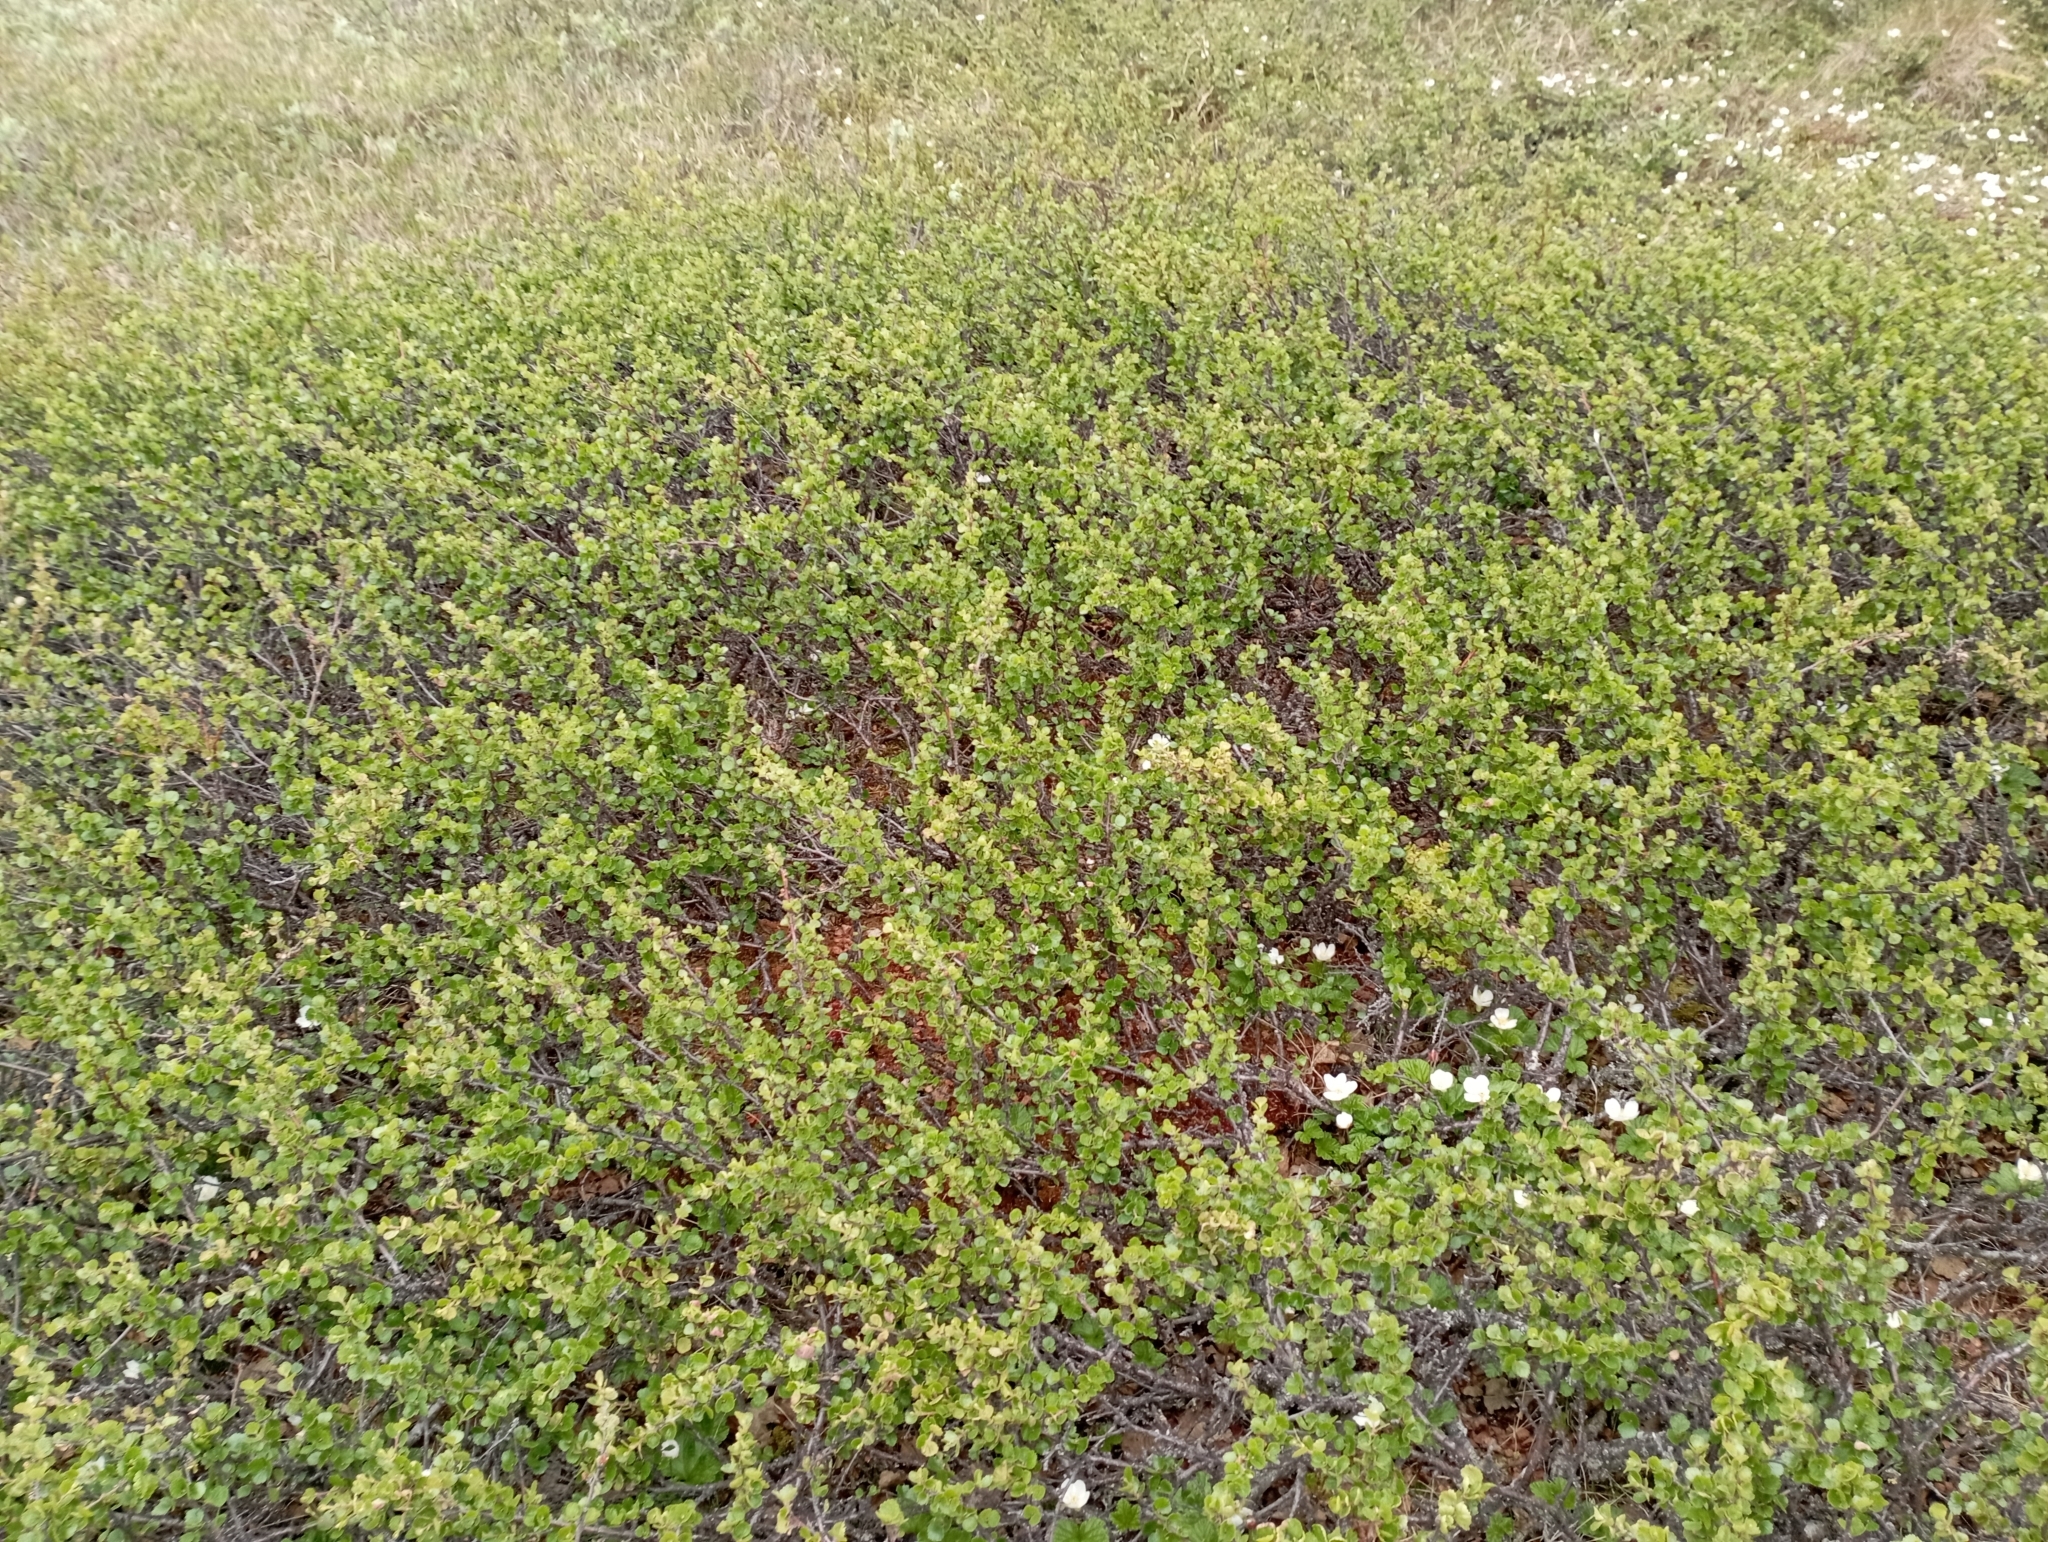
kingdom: Plantae
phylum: Tracheophyta
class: Magnoliopsida
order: Fagales
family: Betulaceae
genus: Betula
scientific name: Betula nana
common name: Arctic dwarf birch
